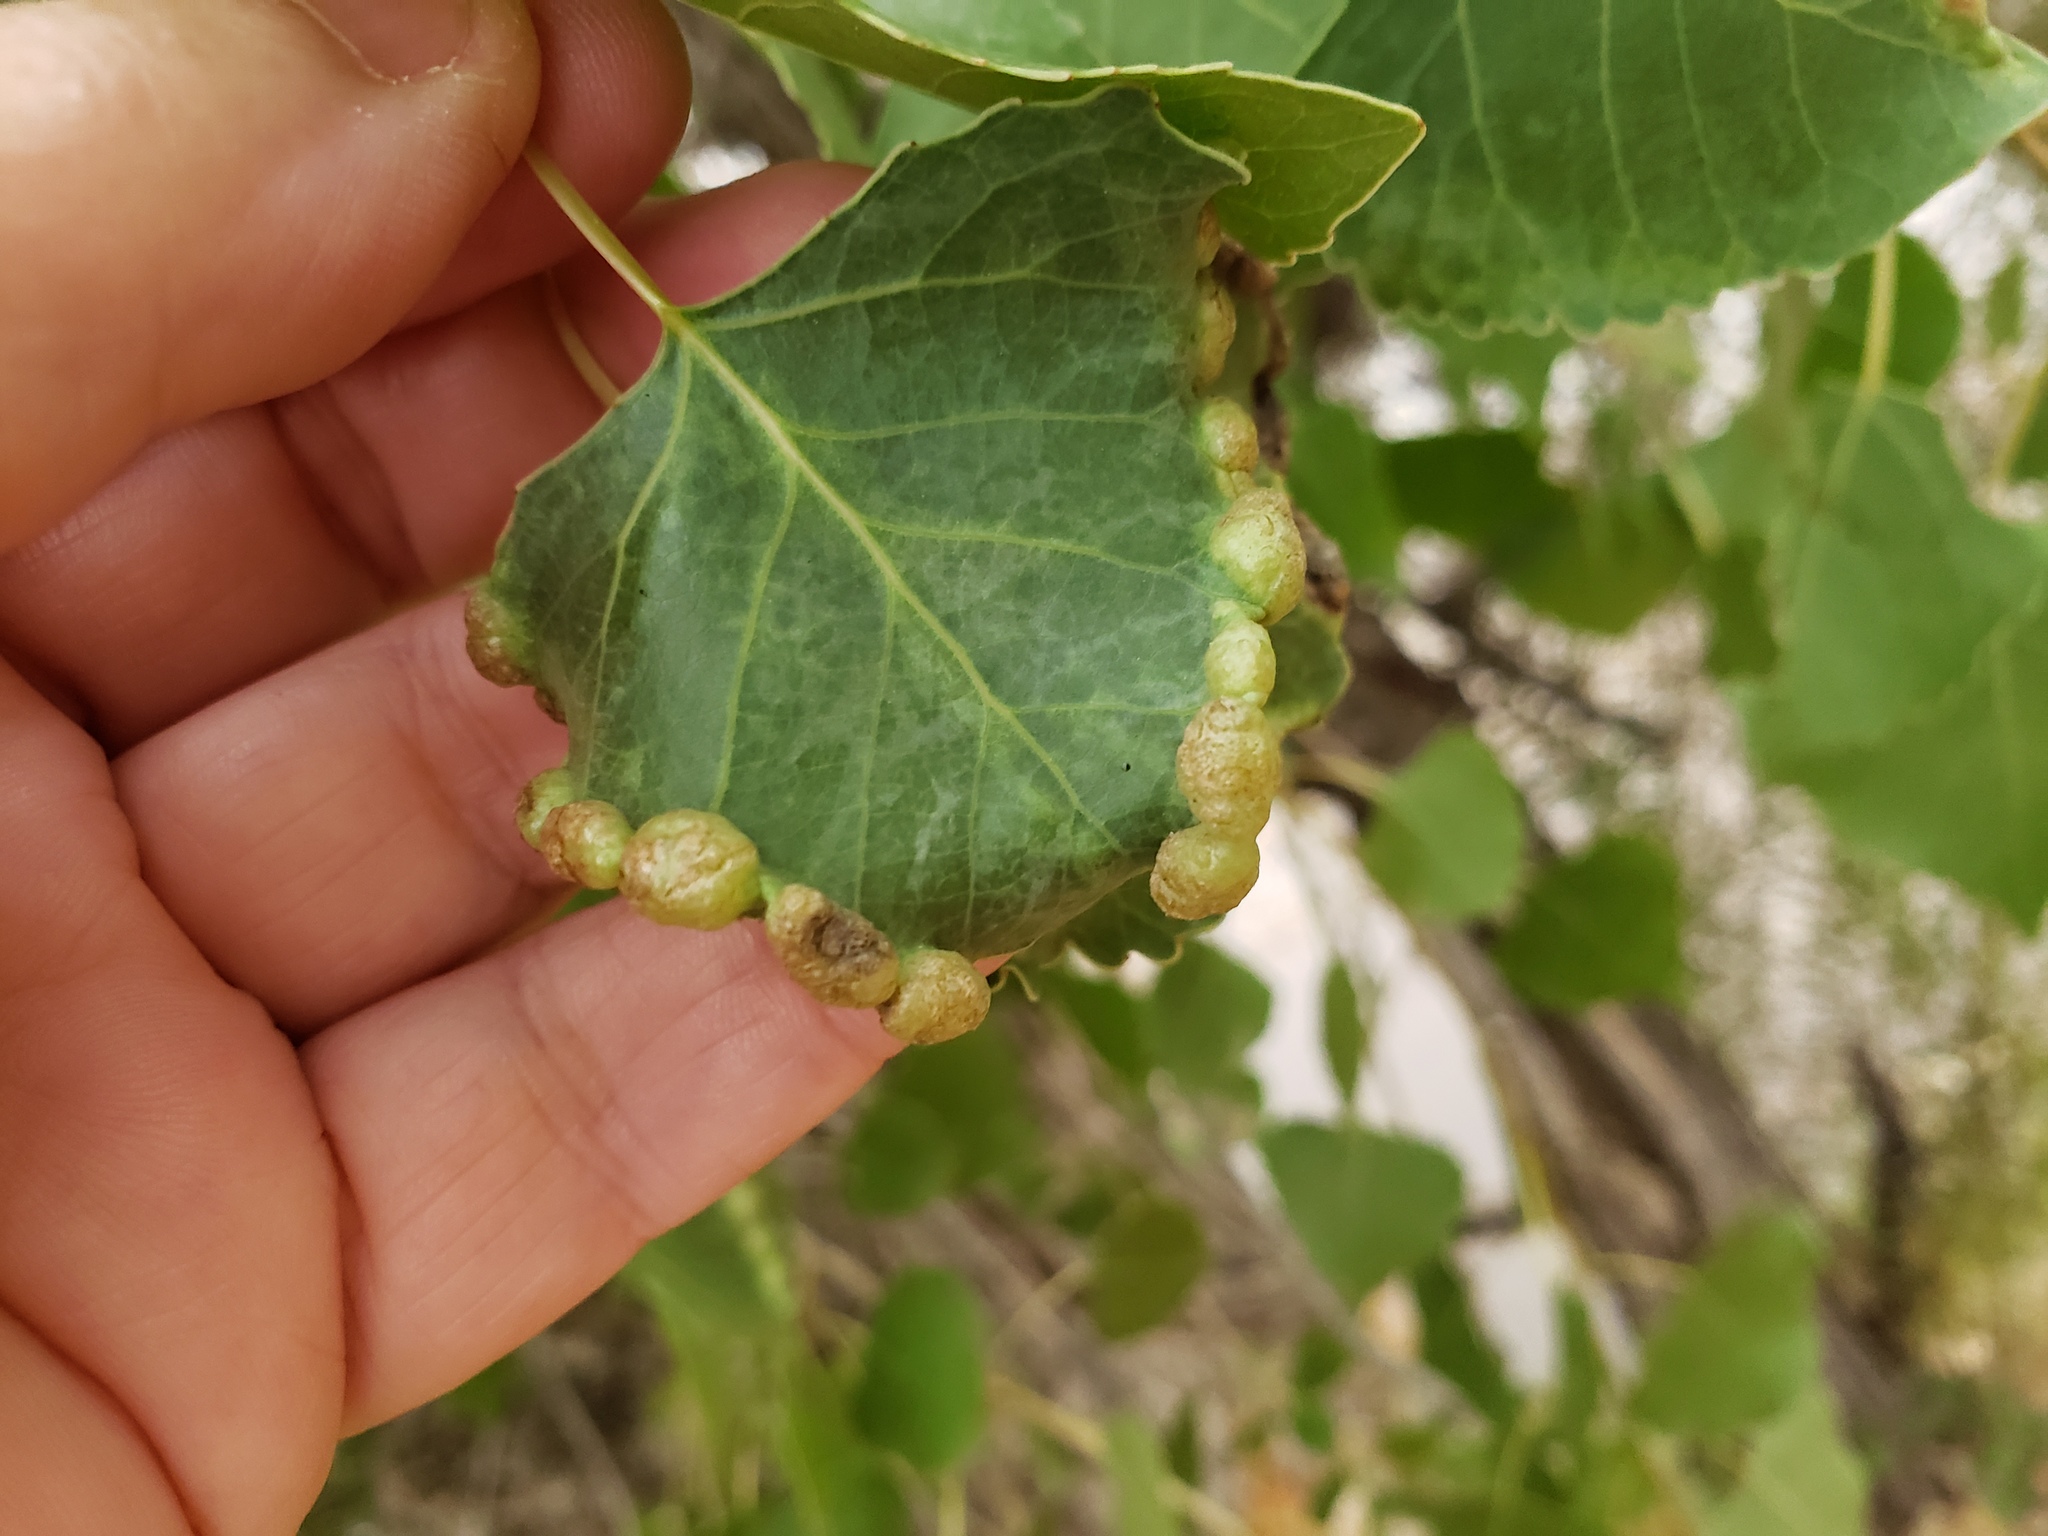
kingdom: Animalia
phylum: Arthropoda
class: Insecta
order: Hemiptera
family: Aphididae
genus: Thecabius
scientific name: Thecabius populimonilis
